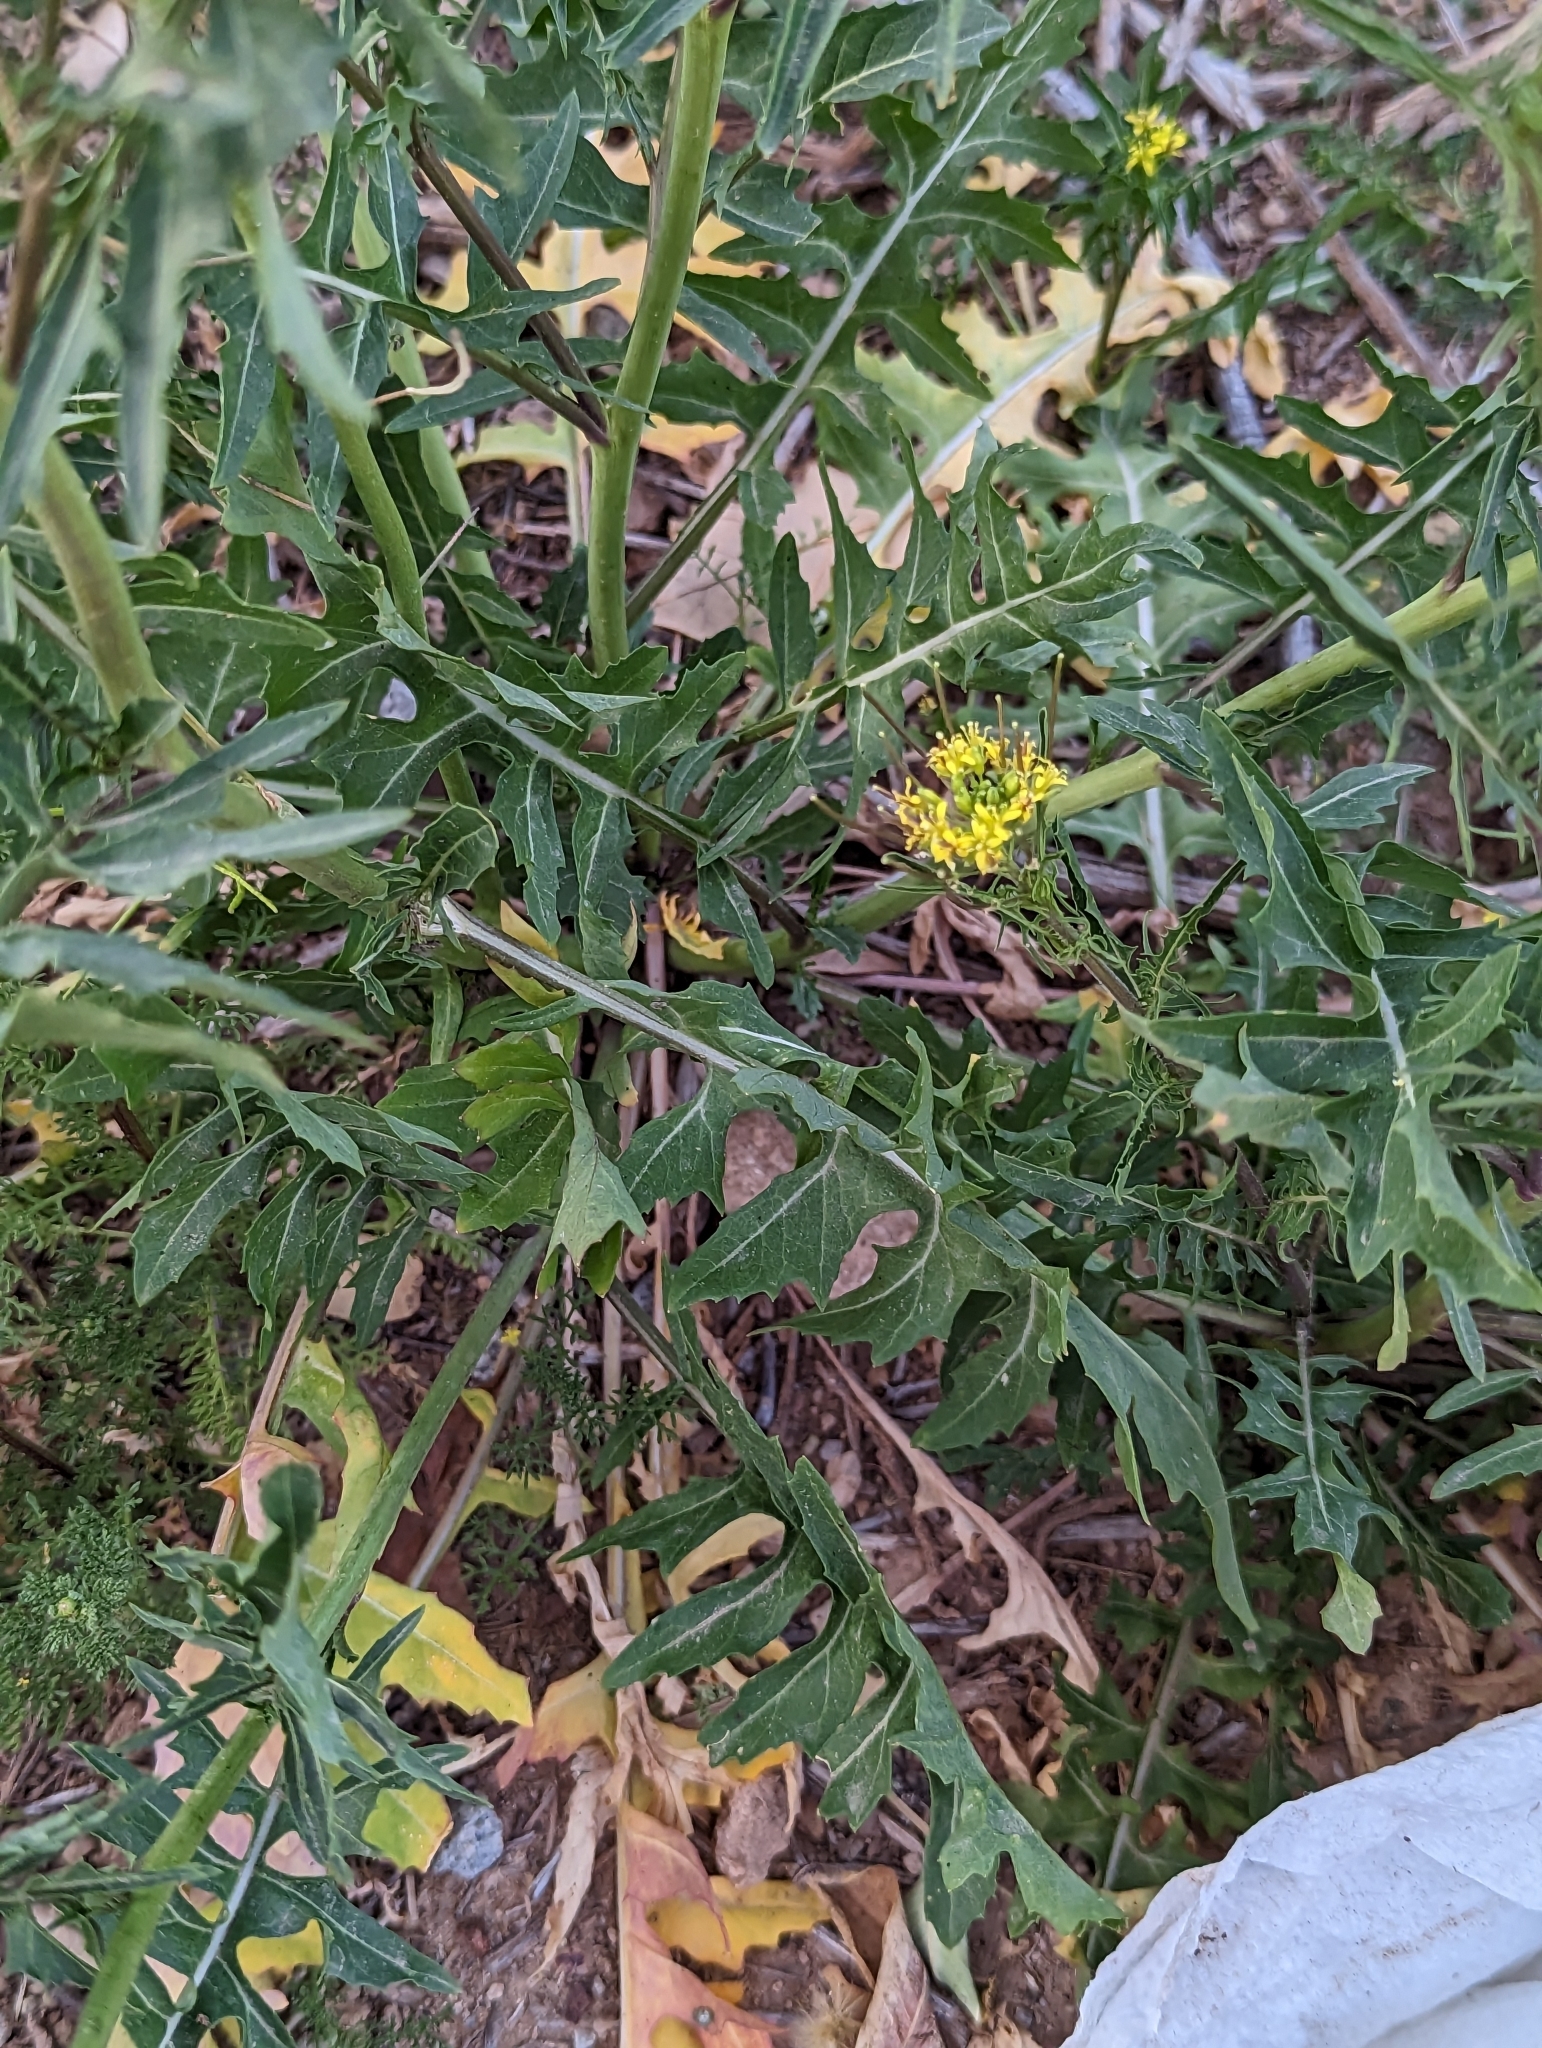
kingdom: Plantae
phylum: Tracheophyta
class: Magnoliopsida
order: Brassicales
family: Brassicaceae
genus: Sisymbrium
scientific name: Sisymbrium irio
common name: London rocket
